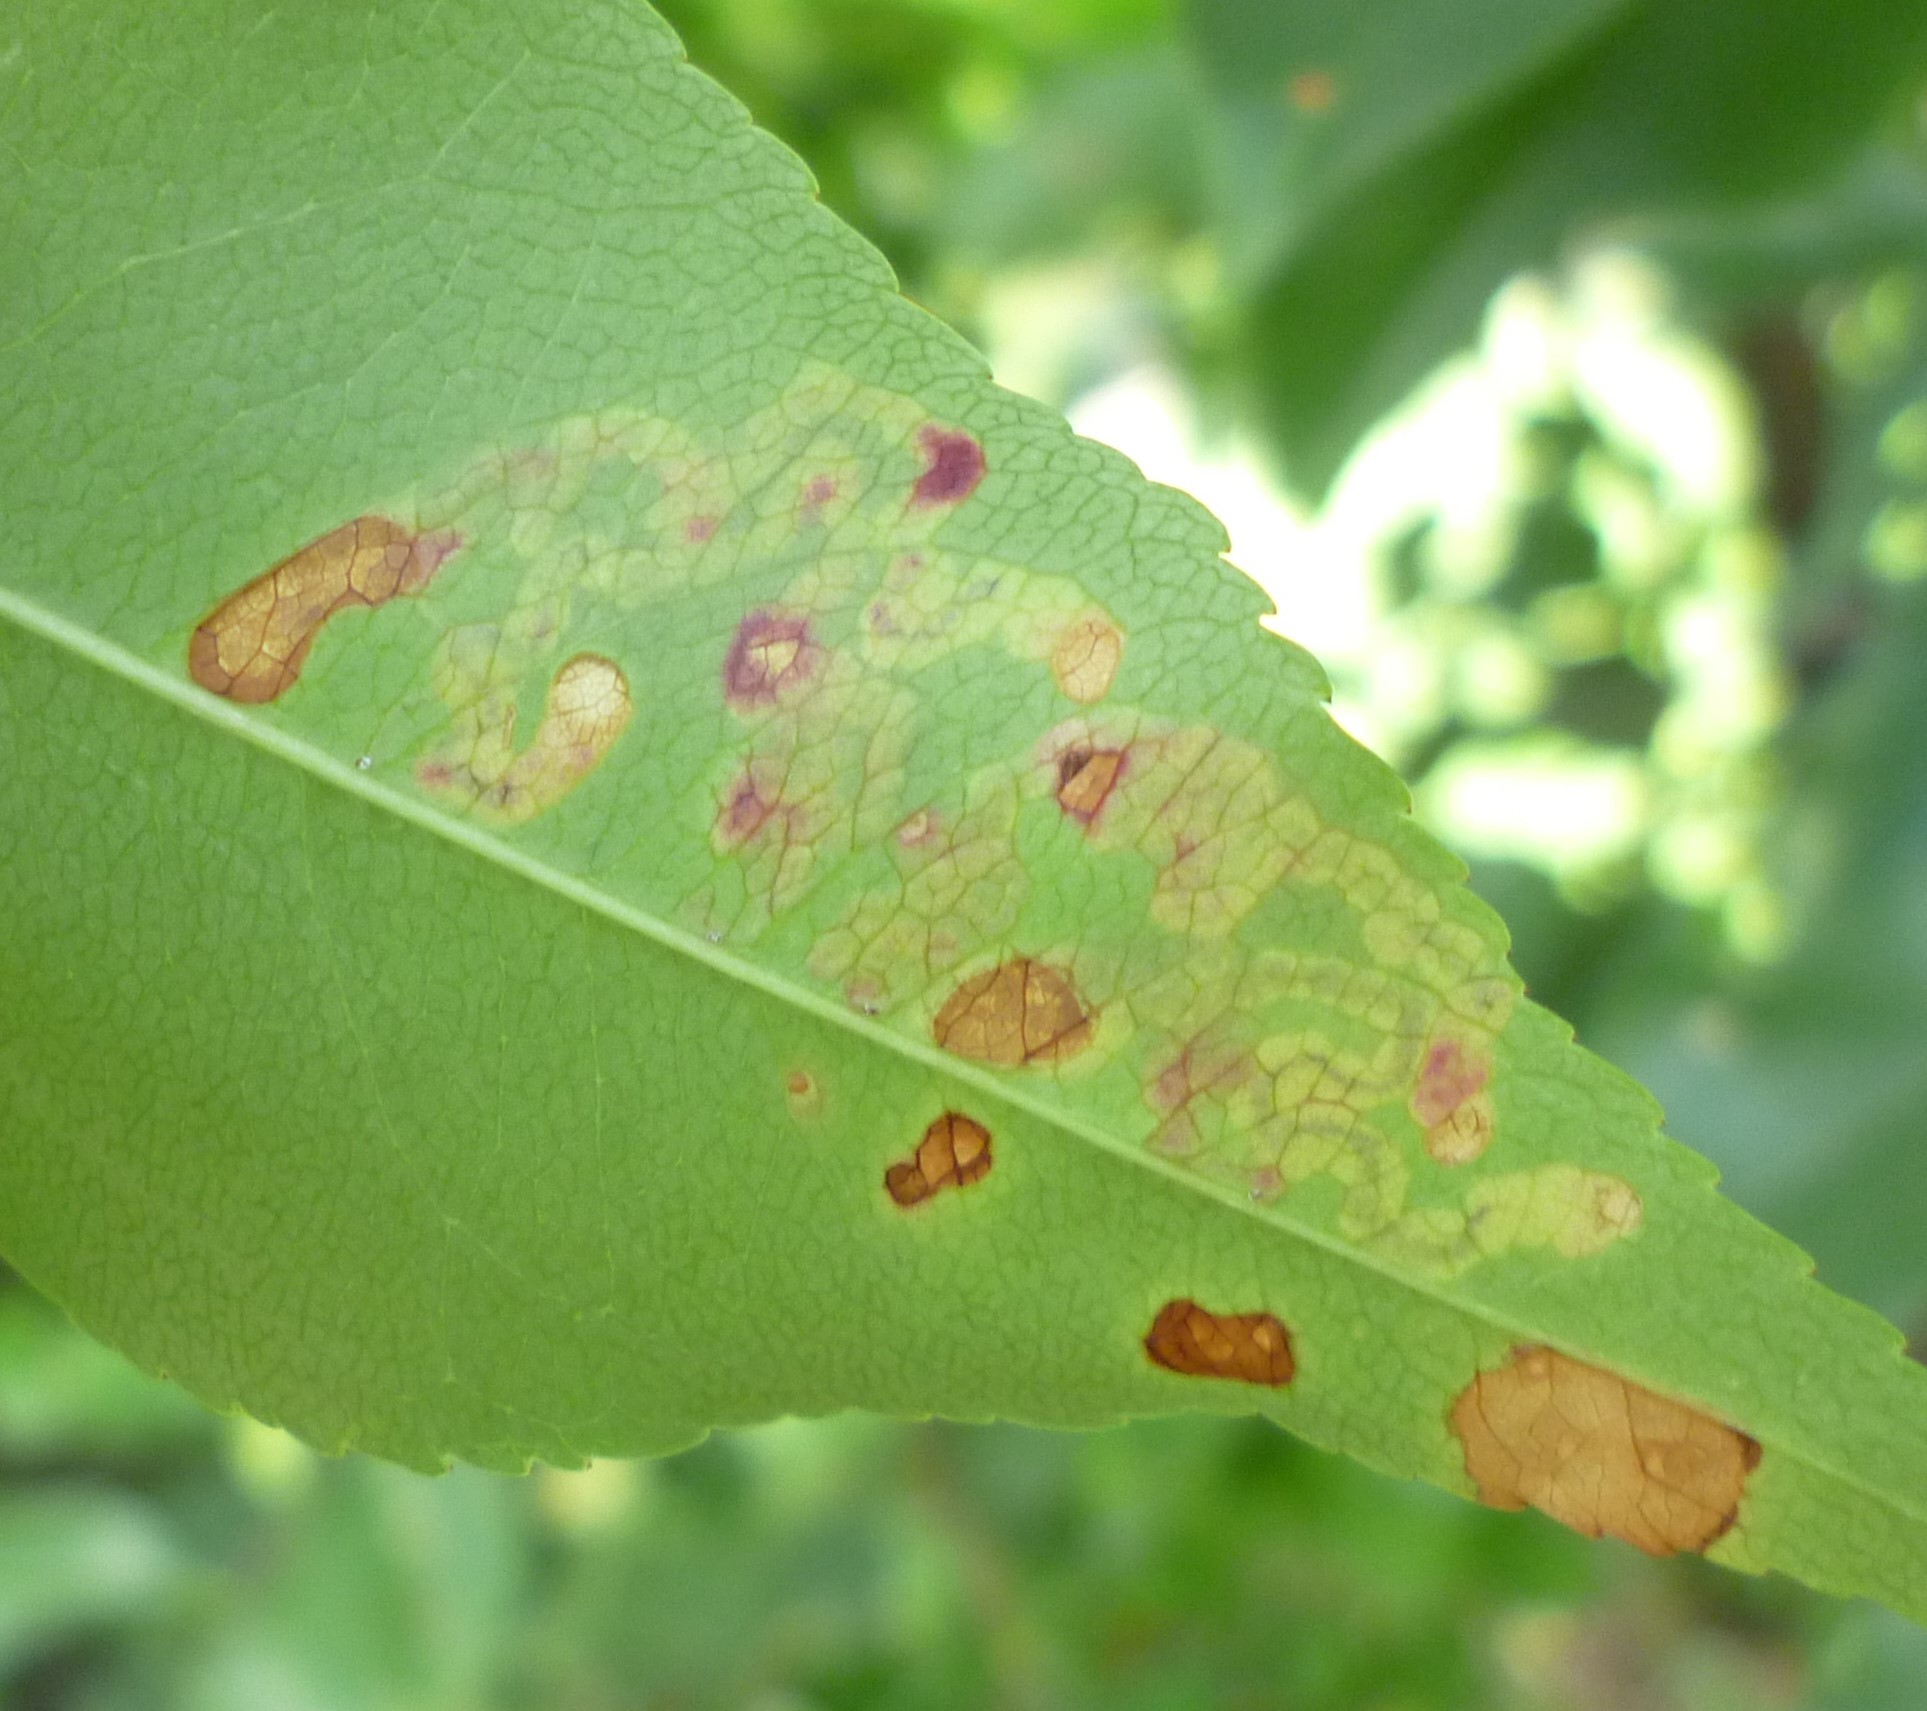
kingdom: Animalia
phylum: Arthropoda
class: Insecta
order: Lepidoptera
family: Nepticulidae
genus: Stigmella
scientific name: Stigmella prunifoliella
